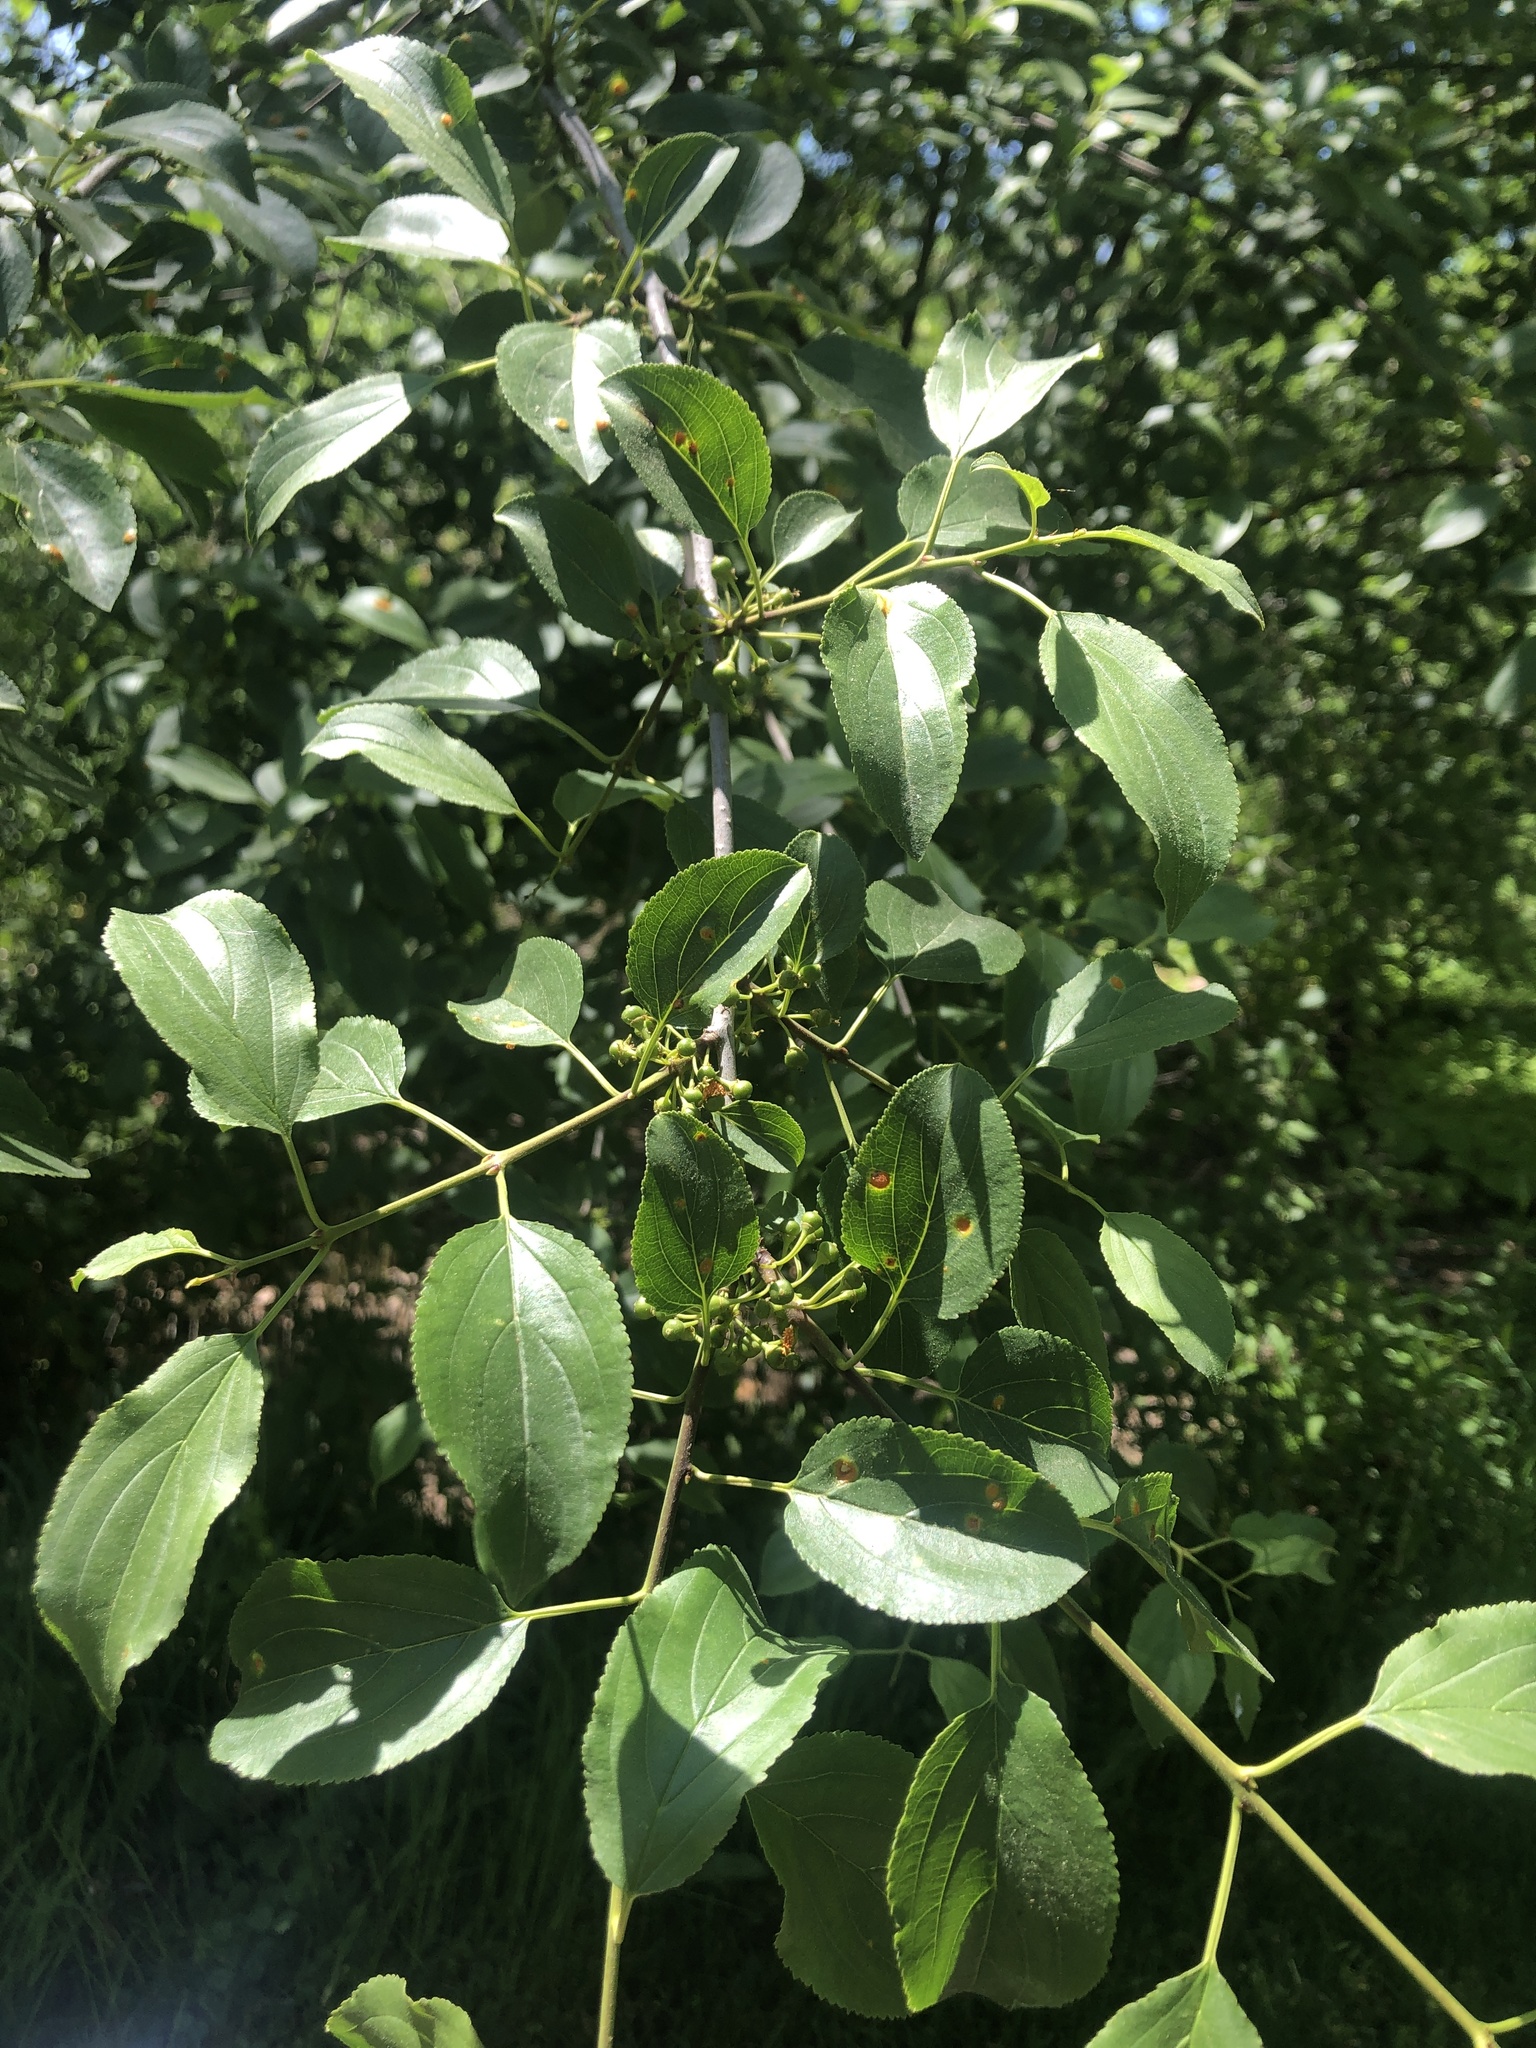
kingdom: Plantae
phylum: Tracheophyta
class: Magnoliopsida
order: Rosales
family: Rhamnaceae
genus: Rhamnus
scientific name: Rhamnus cathartica
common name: Common buckthorn
